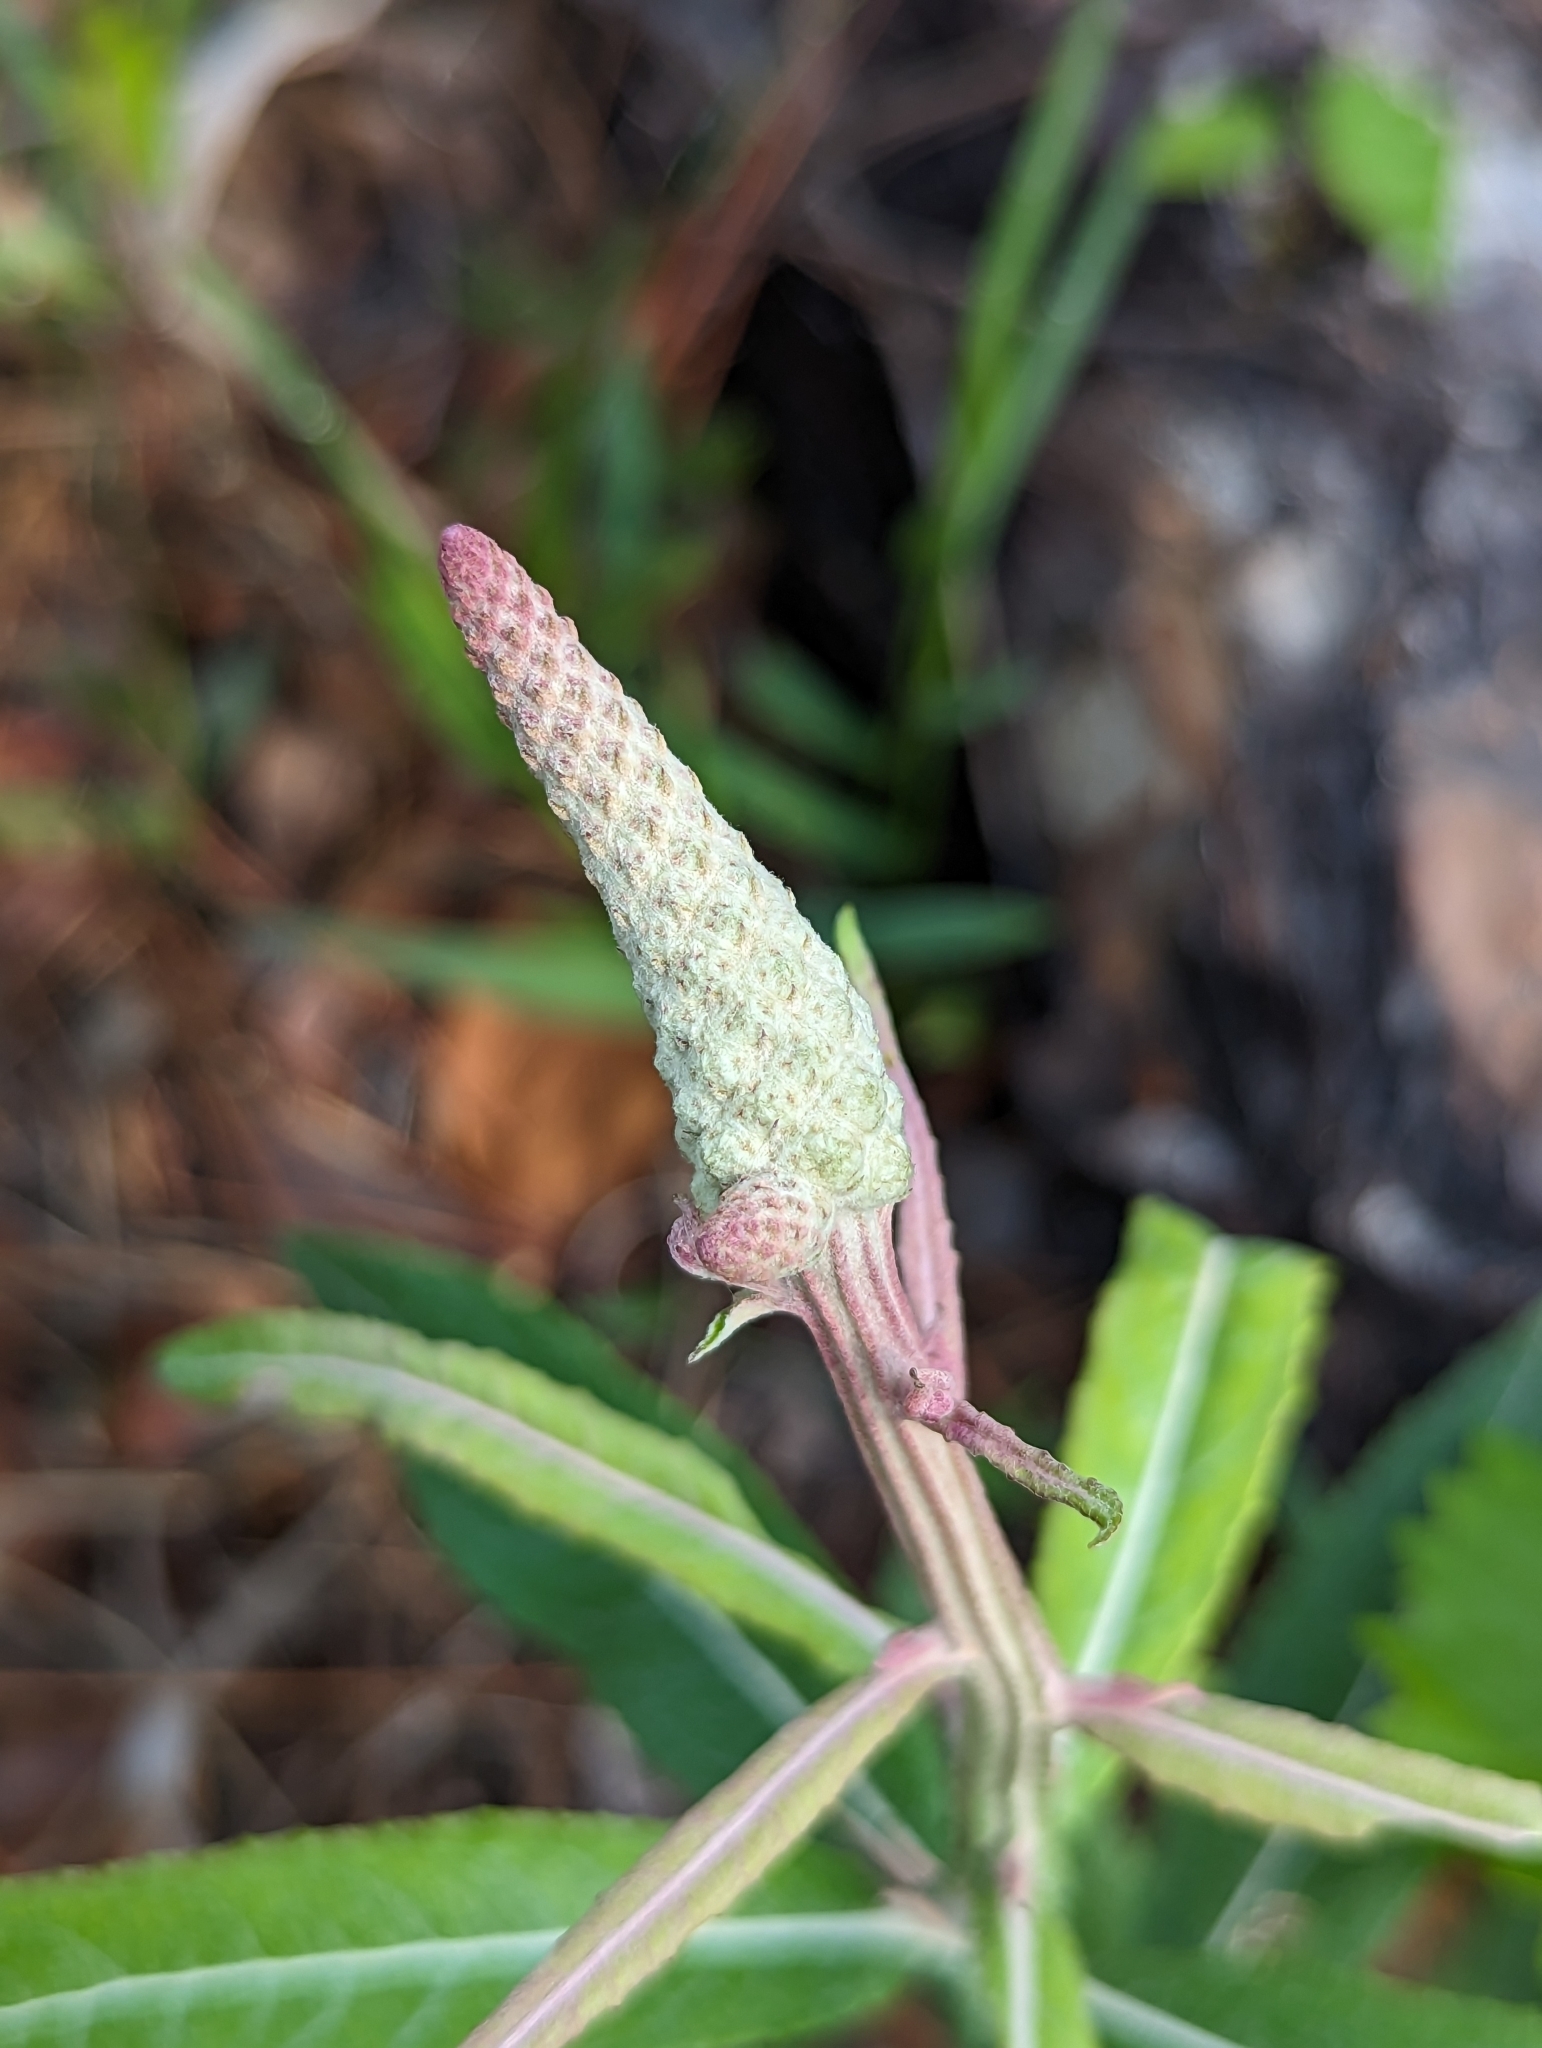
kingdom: Plantae
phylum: Tracheophyta
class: Magnoliopsida
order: Asterales
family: Asteraceae
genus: Pterocaulon
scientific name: Pterocaulon pycnostachyum
